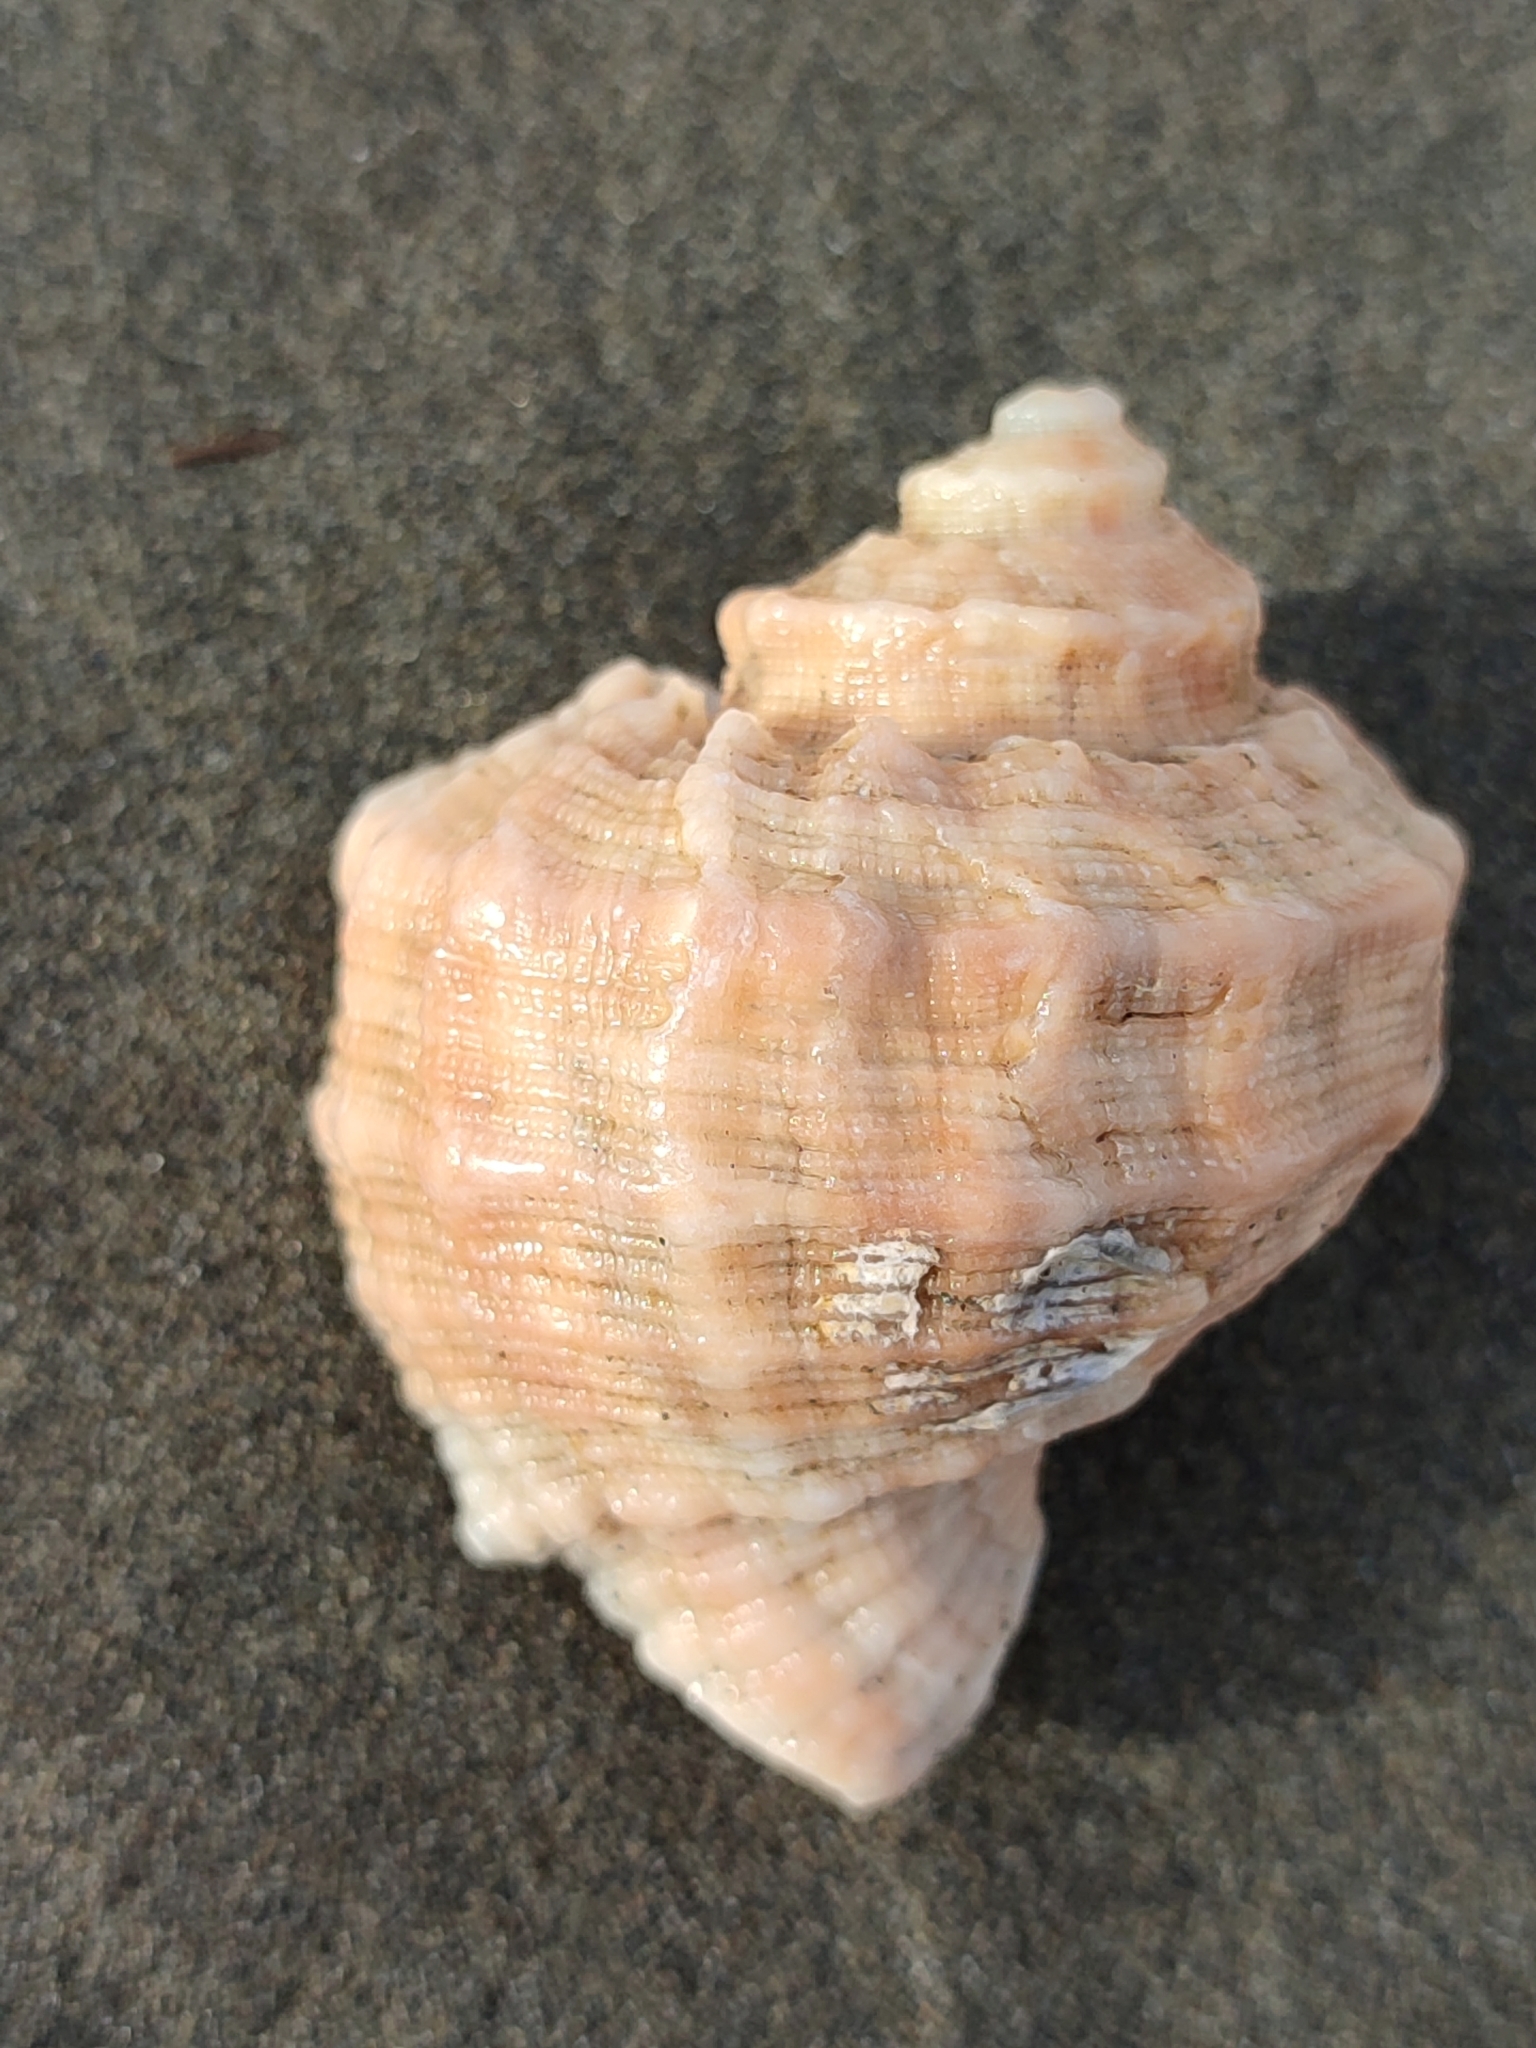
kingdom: Animalia
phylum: Mollusca
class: Gastropoda
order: Neogastropoda
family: Muricidae
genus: Rapana
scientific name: Rapana bezoar
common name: Bezoar rapa whelk
